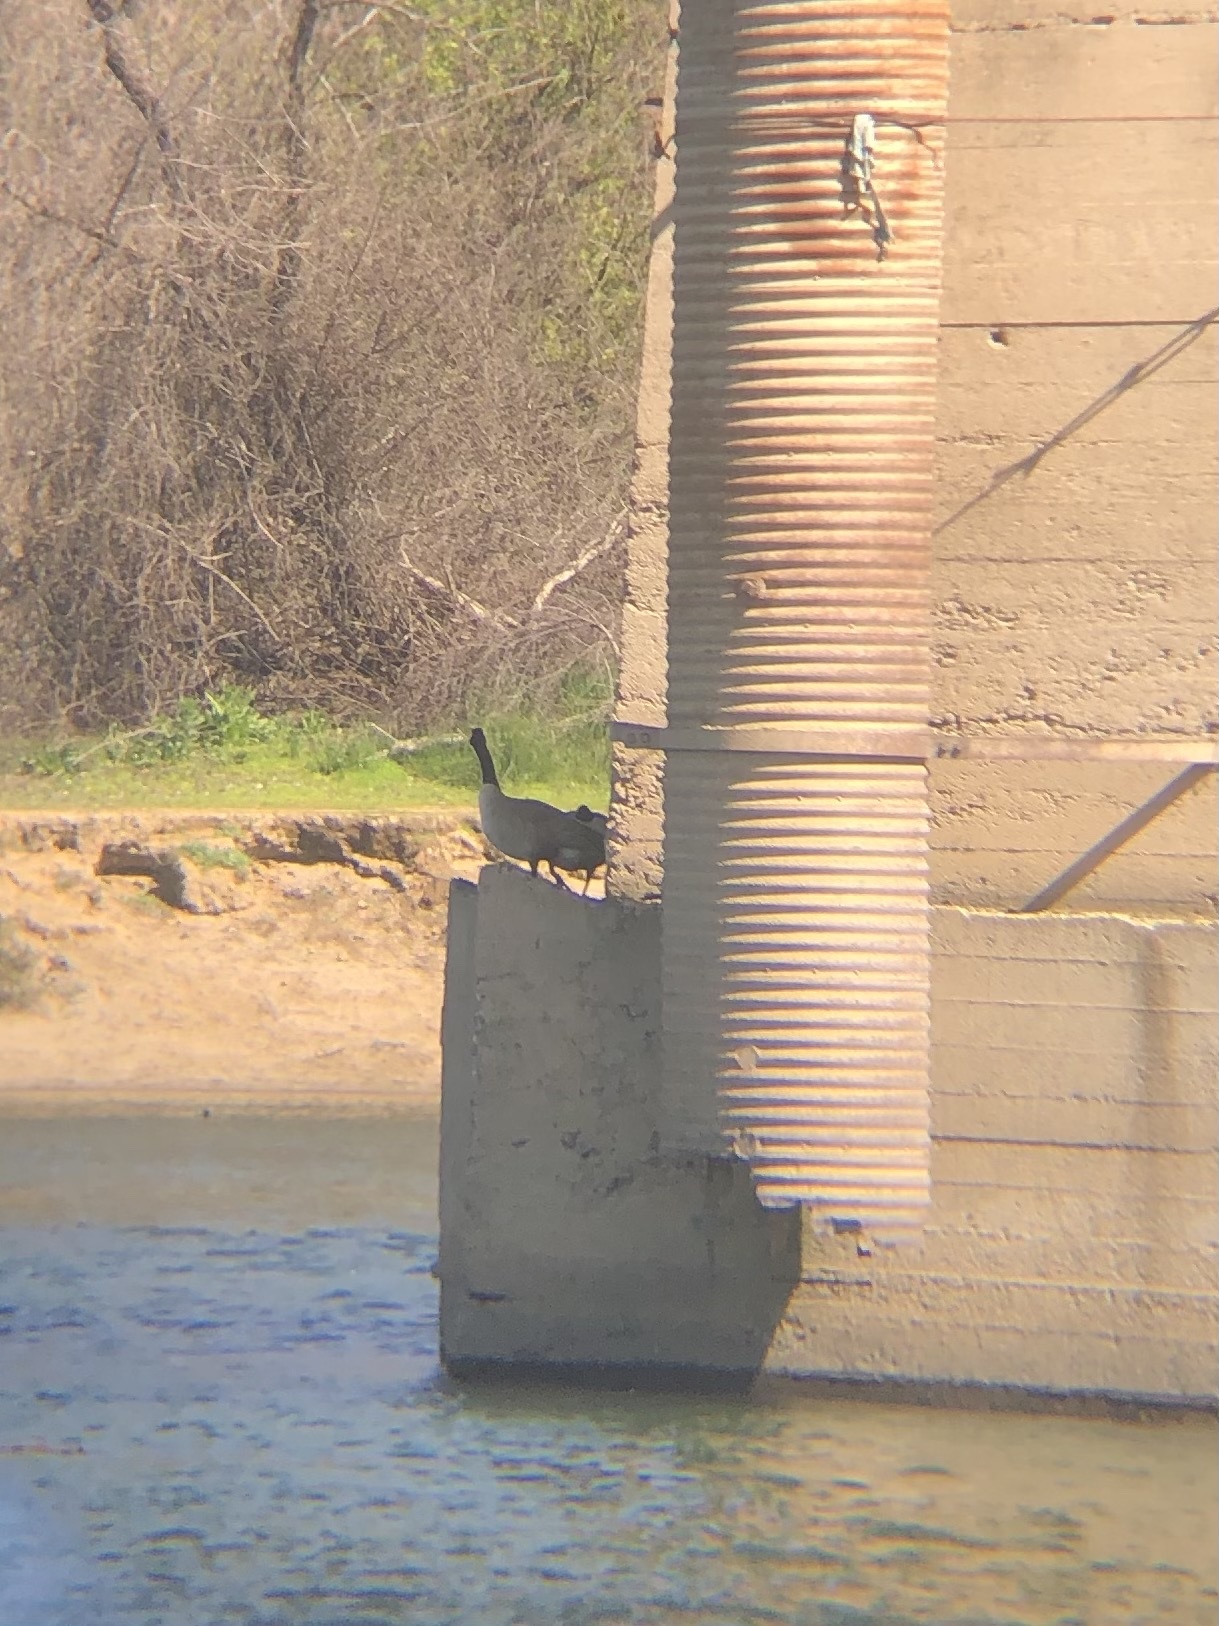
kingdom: Animalia
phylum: Chordata
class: Aves
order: Anseriformes
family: Anatidae
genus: Branta
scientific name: Branta canadensis
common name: Canada goose
